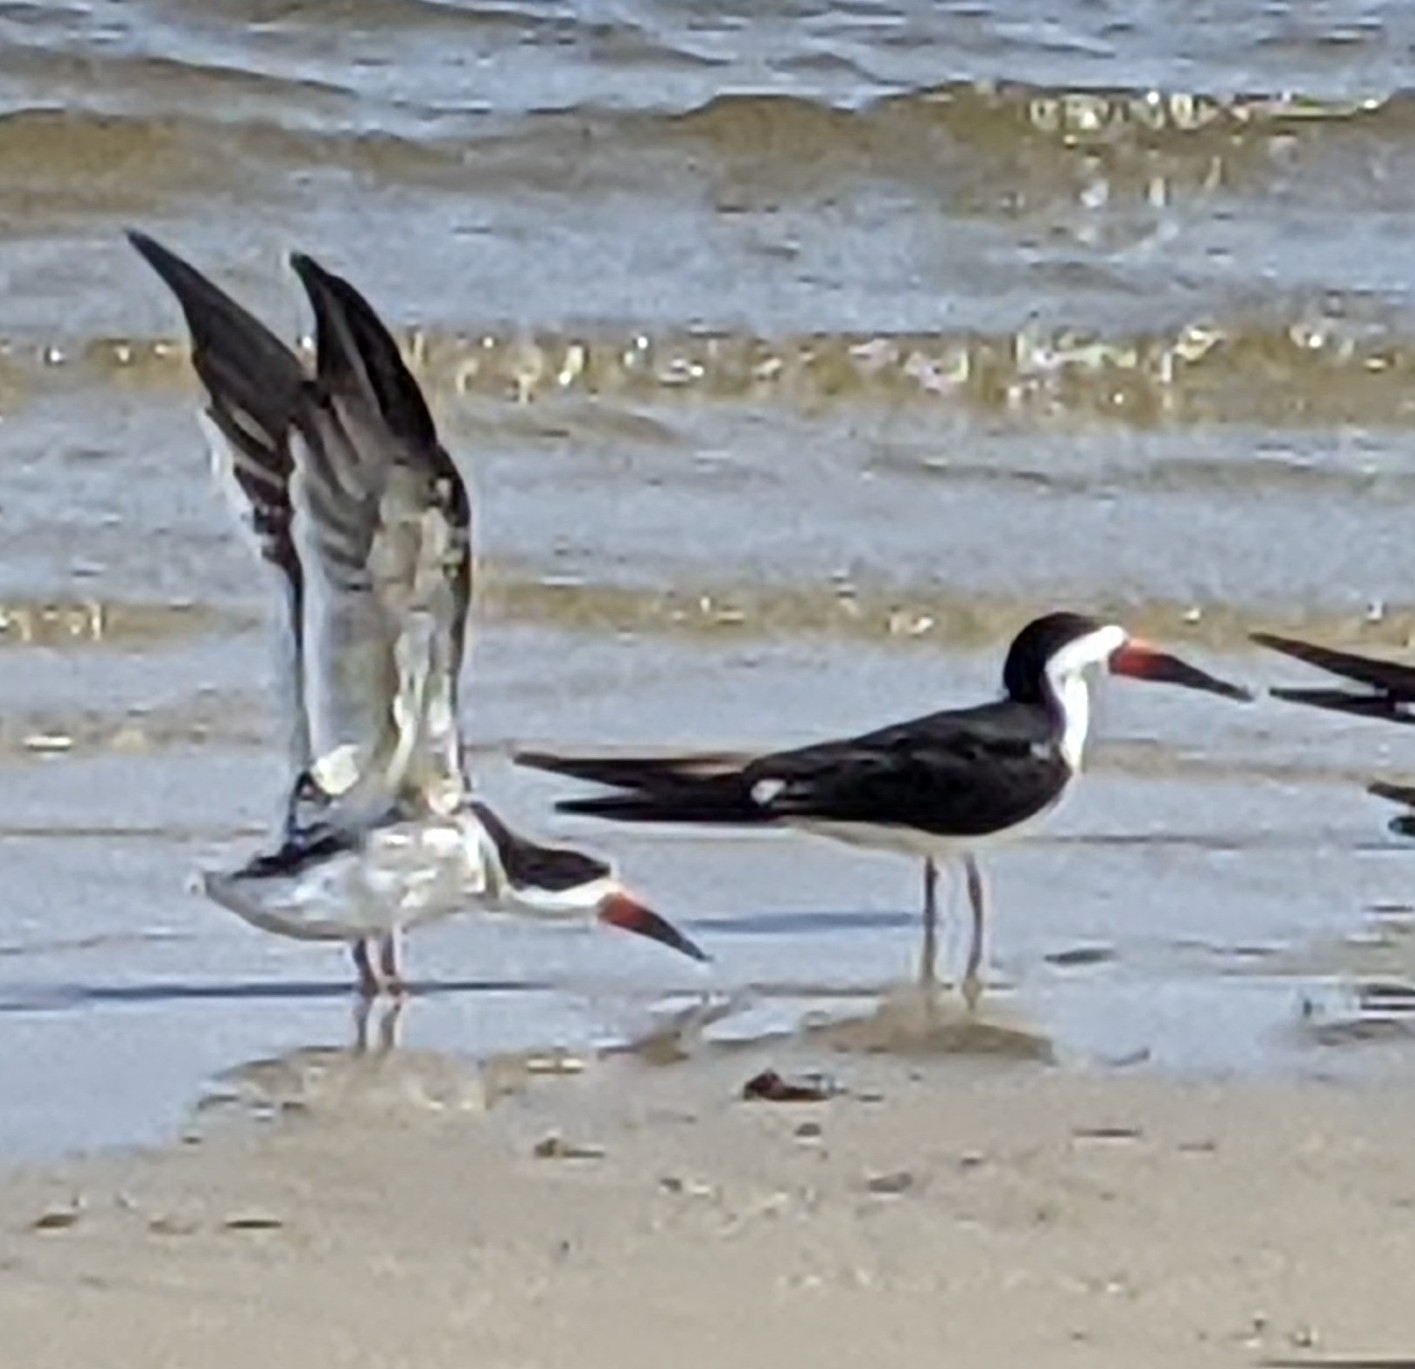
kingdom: Animalia
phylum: Chordata
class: Aves
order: Charadriiformes
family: Laridae
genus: Rynchops
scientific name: Rynchops niger
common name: Black skimmer
